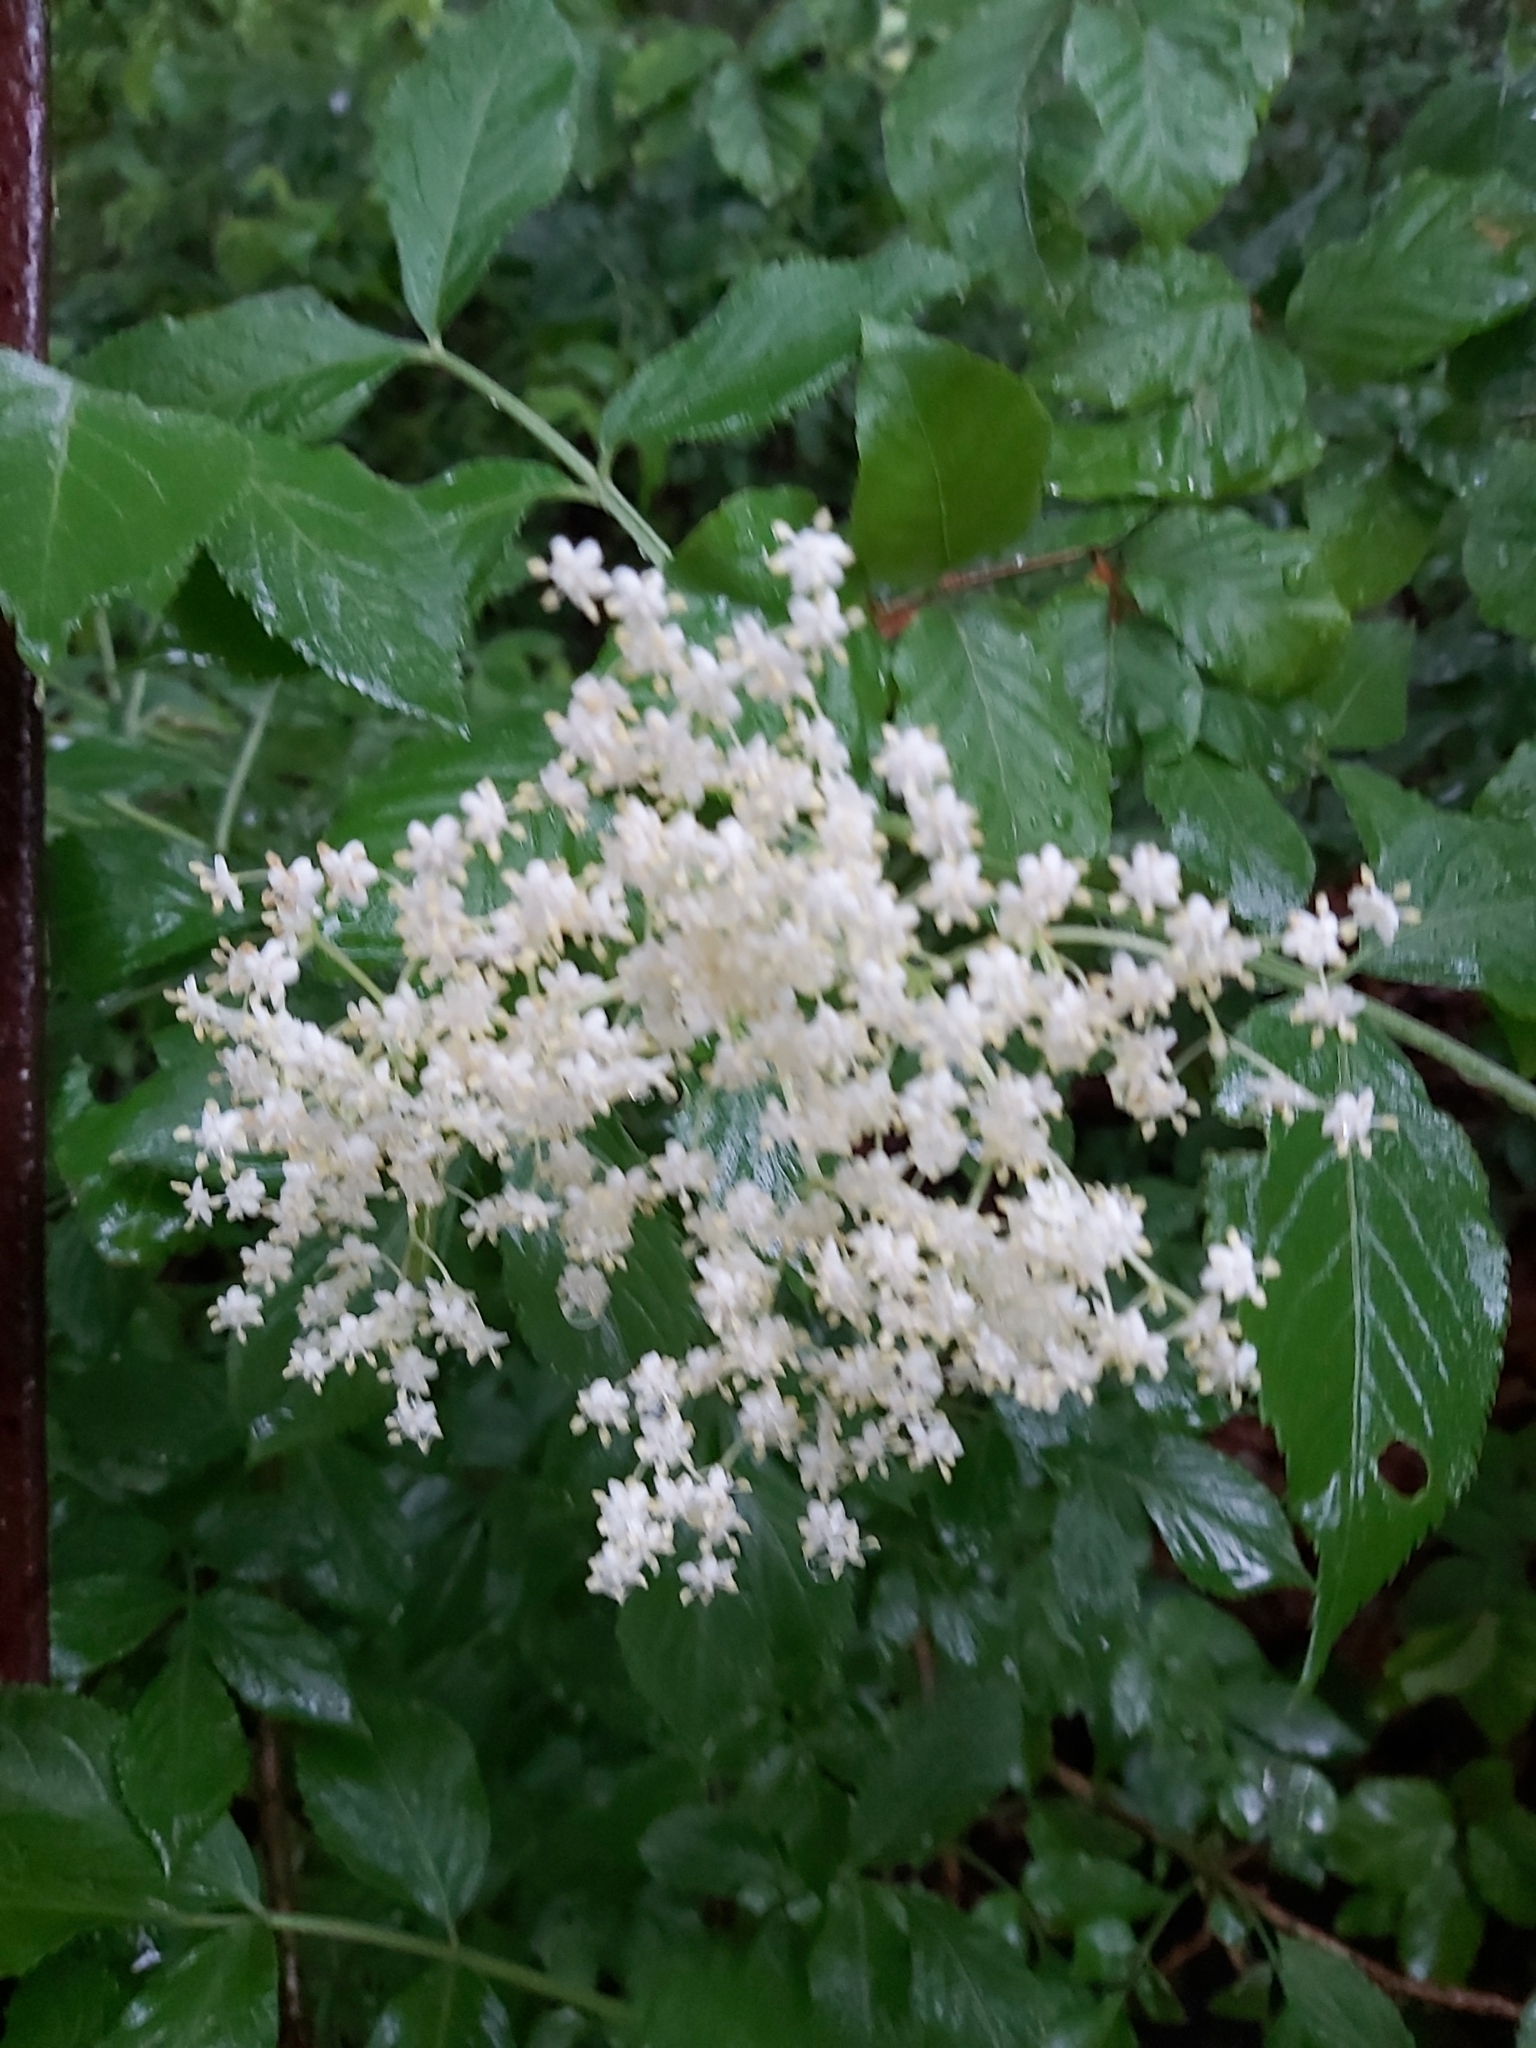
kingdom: Plantae
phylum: Tracheophyta
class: Magnoliopsida
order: Dipsacales
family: Viburnaceae
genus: Sambucus
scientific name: Sambucus nigra
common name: Elder
